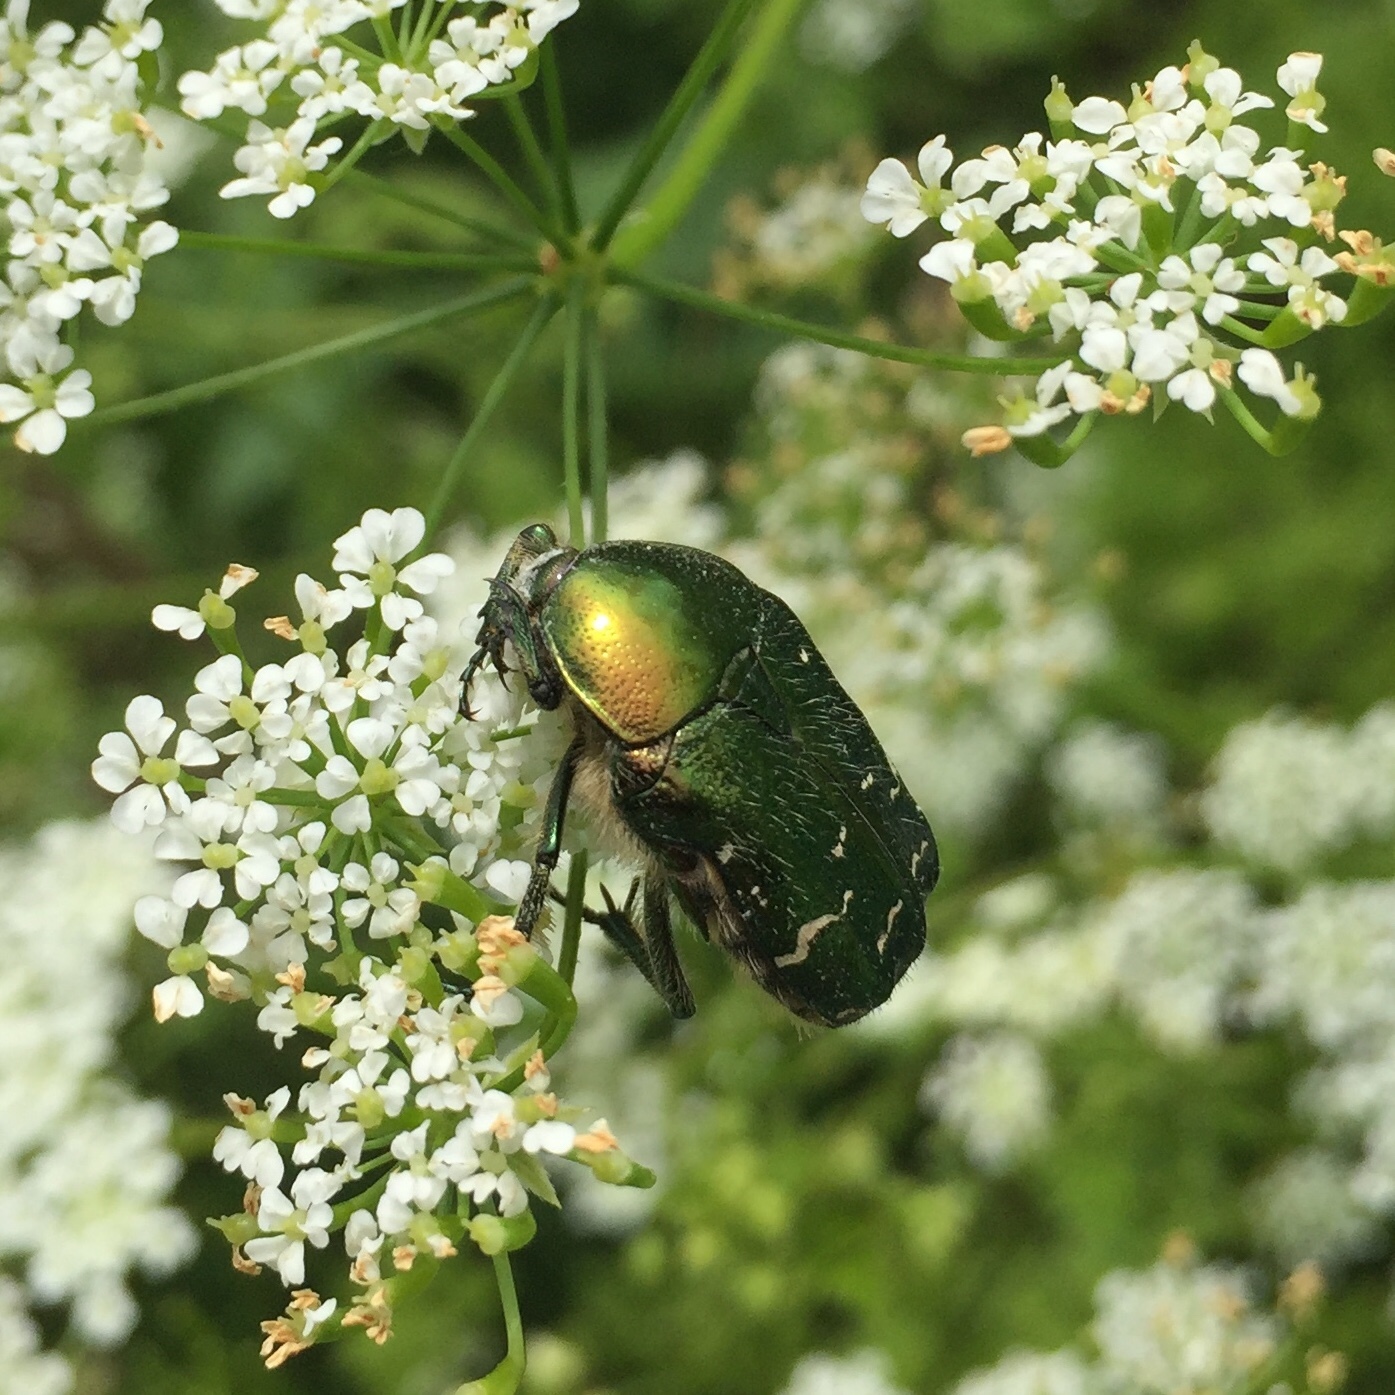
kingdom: Animalia
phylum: Arthropoda
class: Insecta
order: Coleoptera
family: Scarabaeidae
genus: Cetonia
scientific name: Cetonia aurata
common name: Rose chafer
